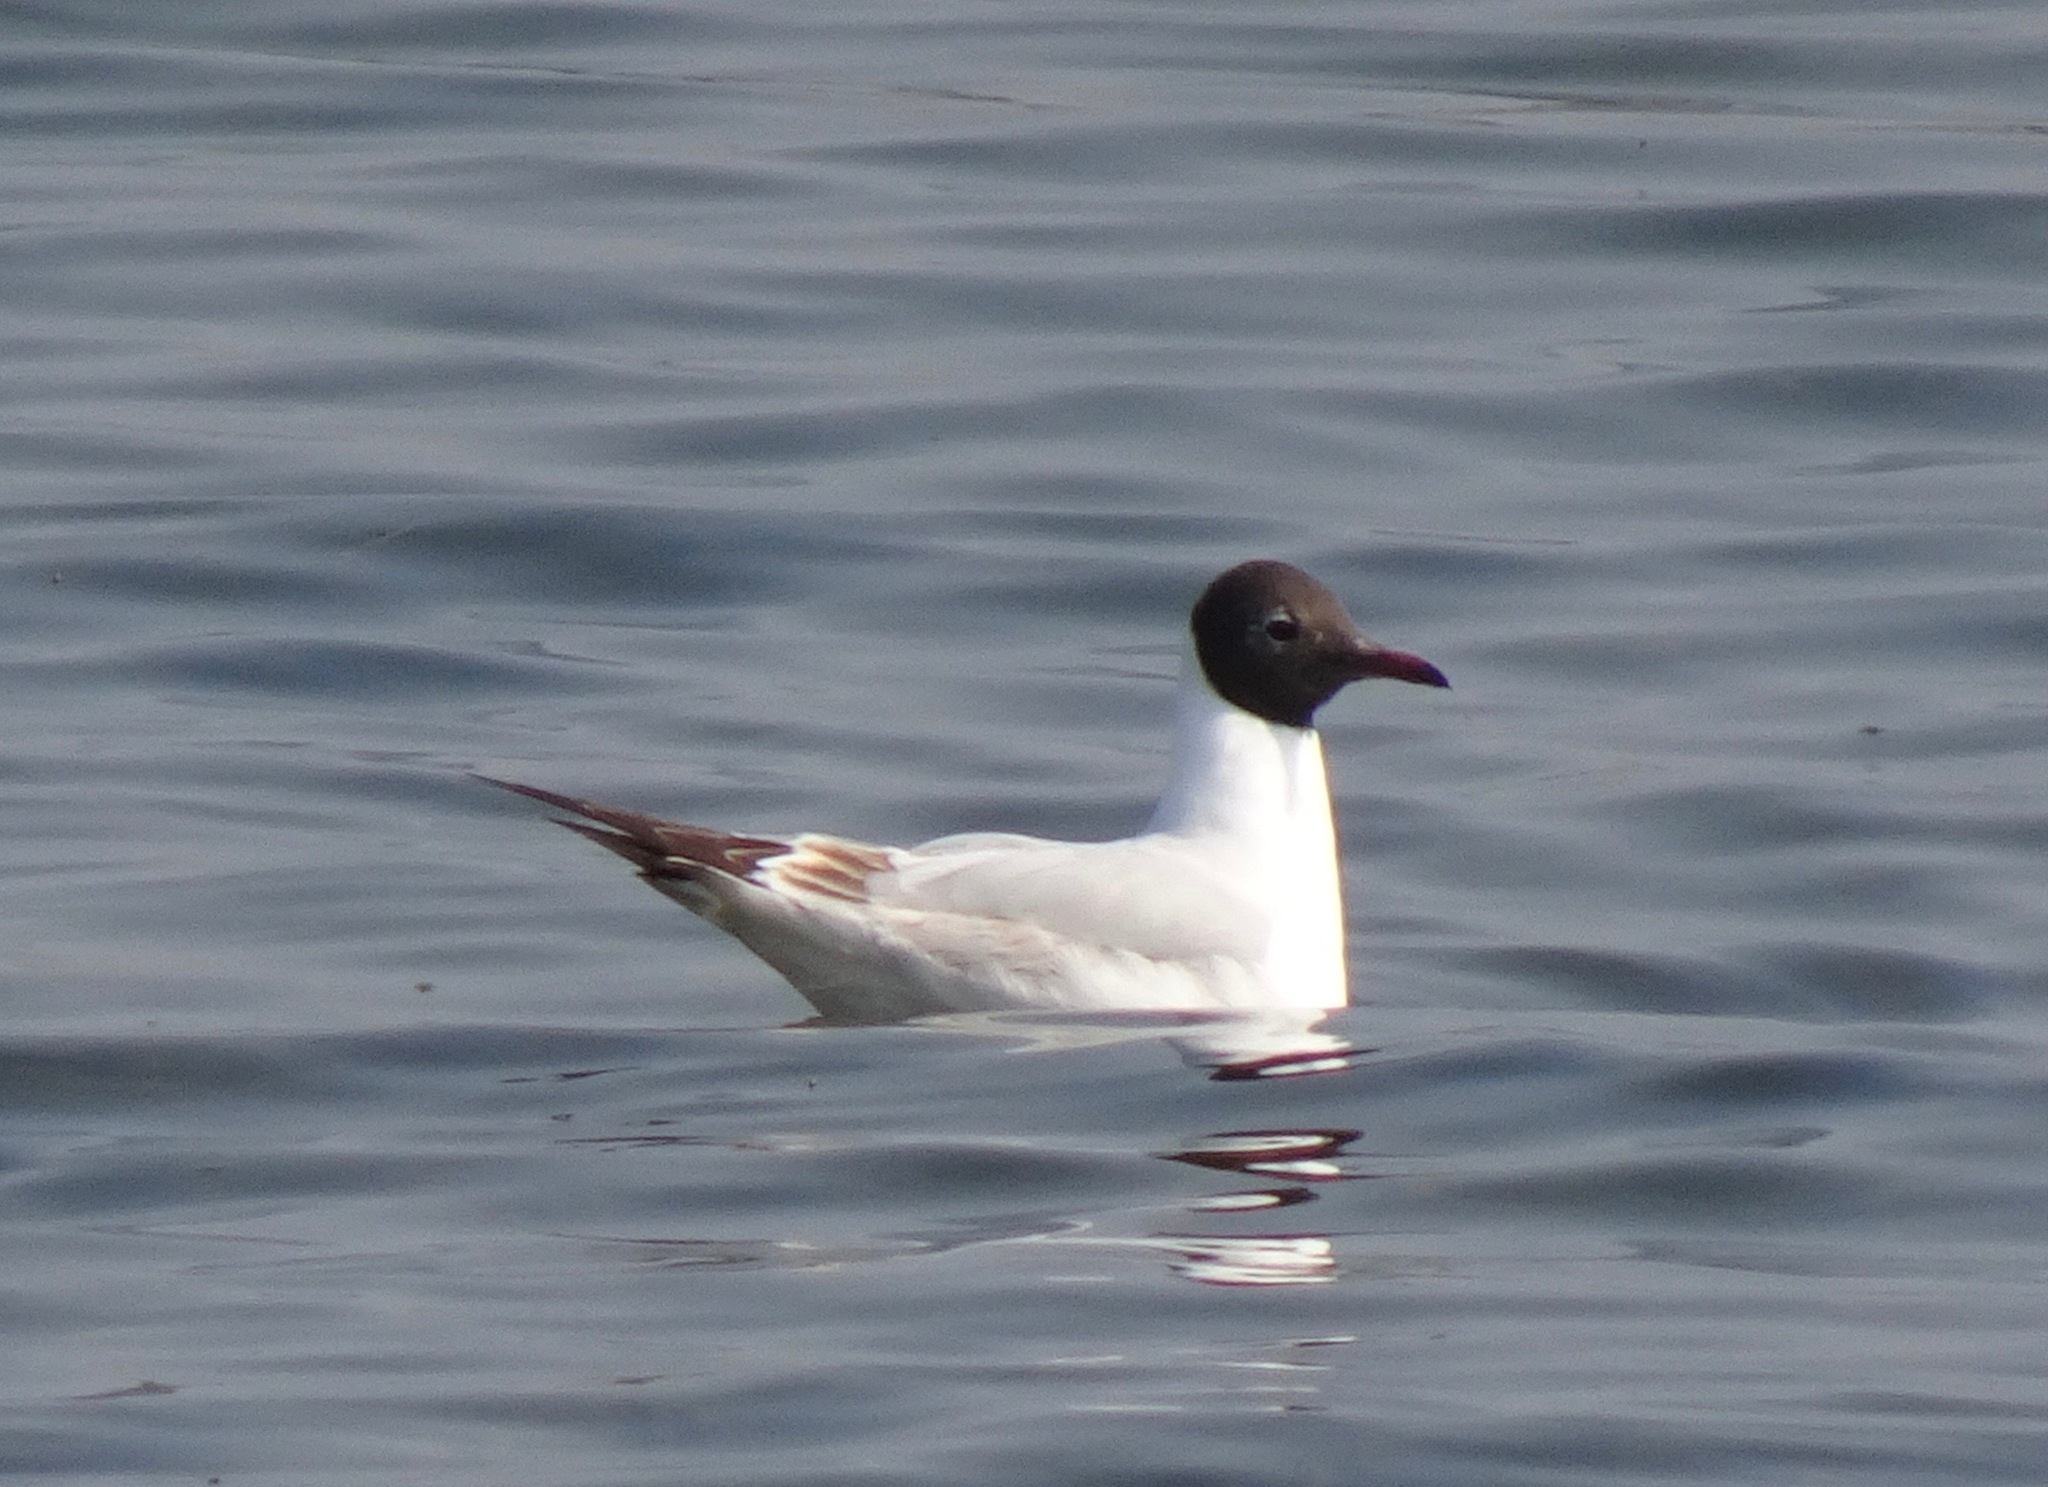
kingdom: Animalia
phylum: Chordata
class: Aves
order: Charadriiformes
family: Laridae
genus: Chroicocephalus
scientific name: Chroicocephalus ridibundus
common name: Black-headed gull
